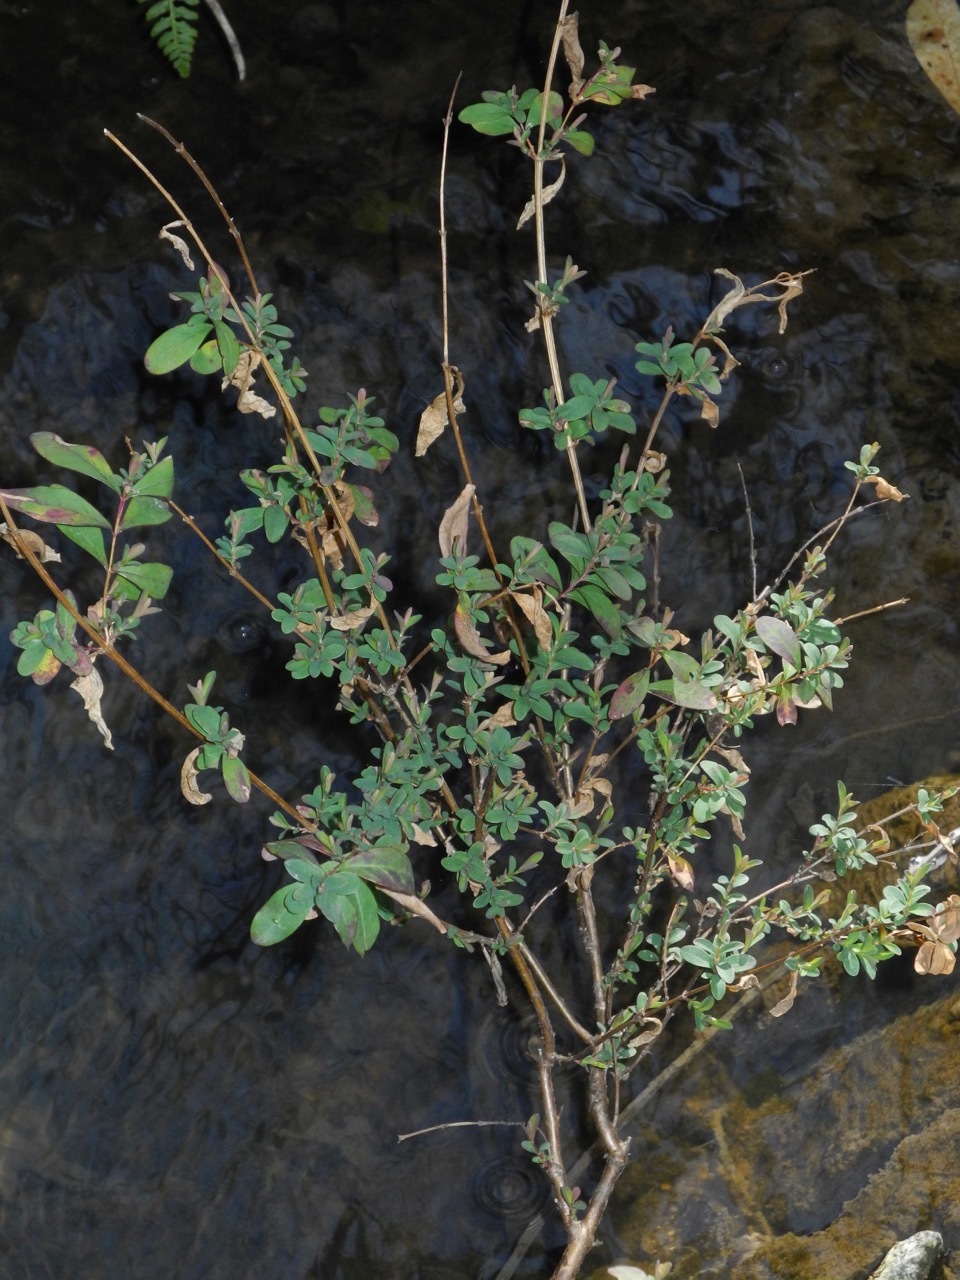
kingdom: Plantae
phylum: Tracheophyta
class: Magnoliopsida
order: Malpighiales
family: Hypericaceae
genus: Hypericum
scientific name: Hypericum hypericoides
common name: St. andrew's cross
